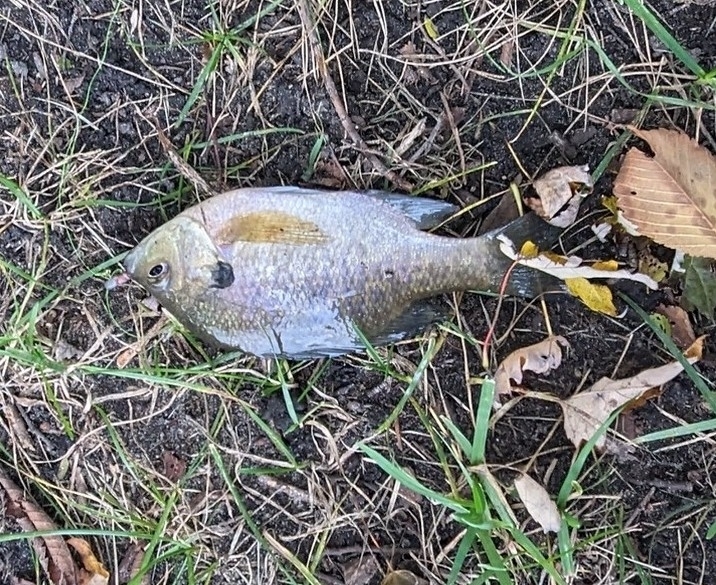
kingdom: Animalia
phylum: Chordata
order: Perciformes
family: Centrarchidae
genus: Lepomis
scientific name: Lepomis macrochirus
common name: Bluegill
